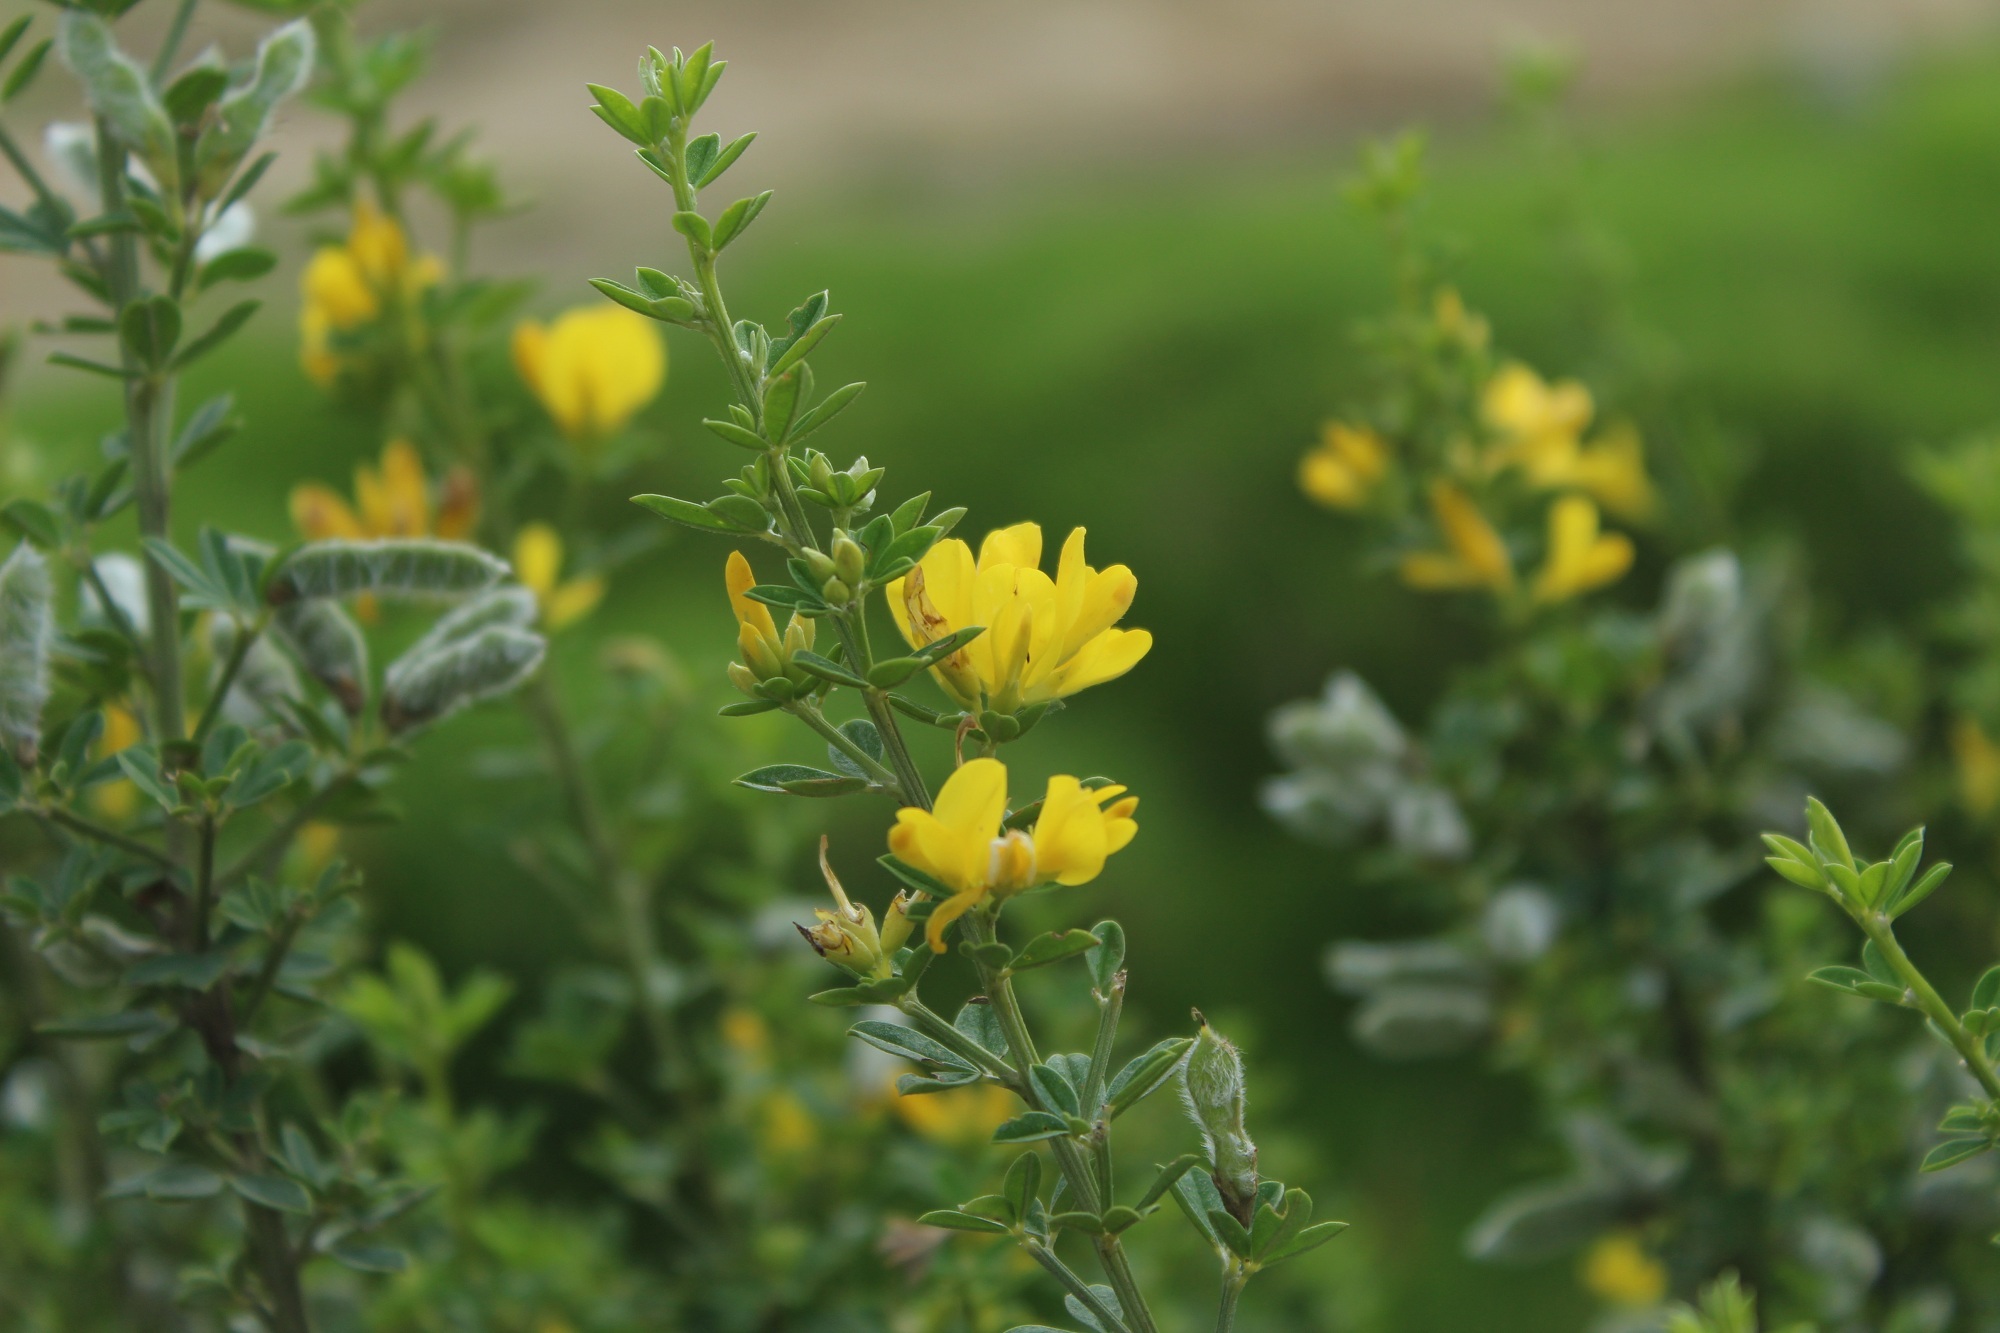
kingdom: Plantae
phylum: Tracheophyta
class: Magnoliopsida
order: Fabales
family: Fabaceae
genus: Genista
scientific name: Genista monspessulana
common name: Montpellier broom
